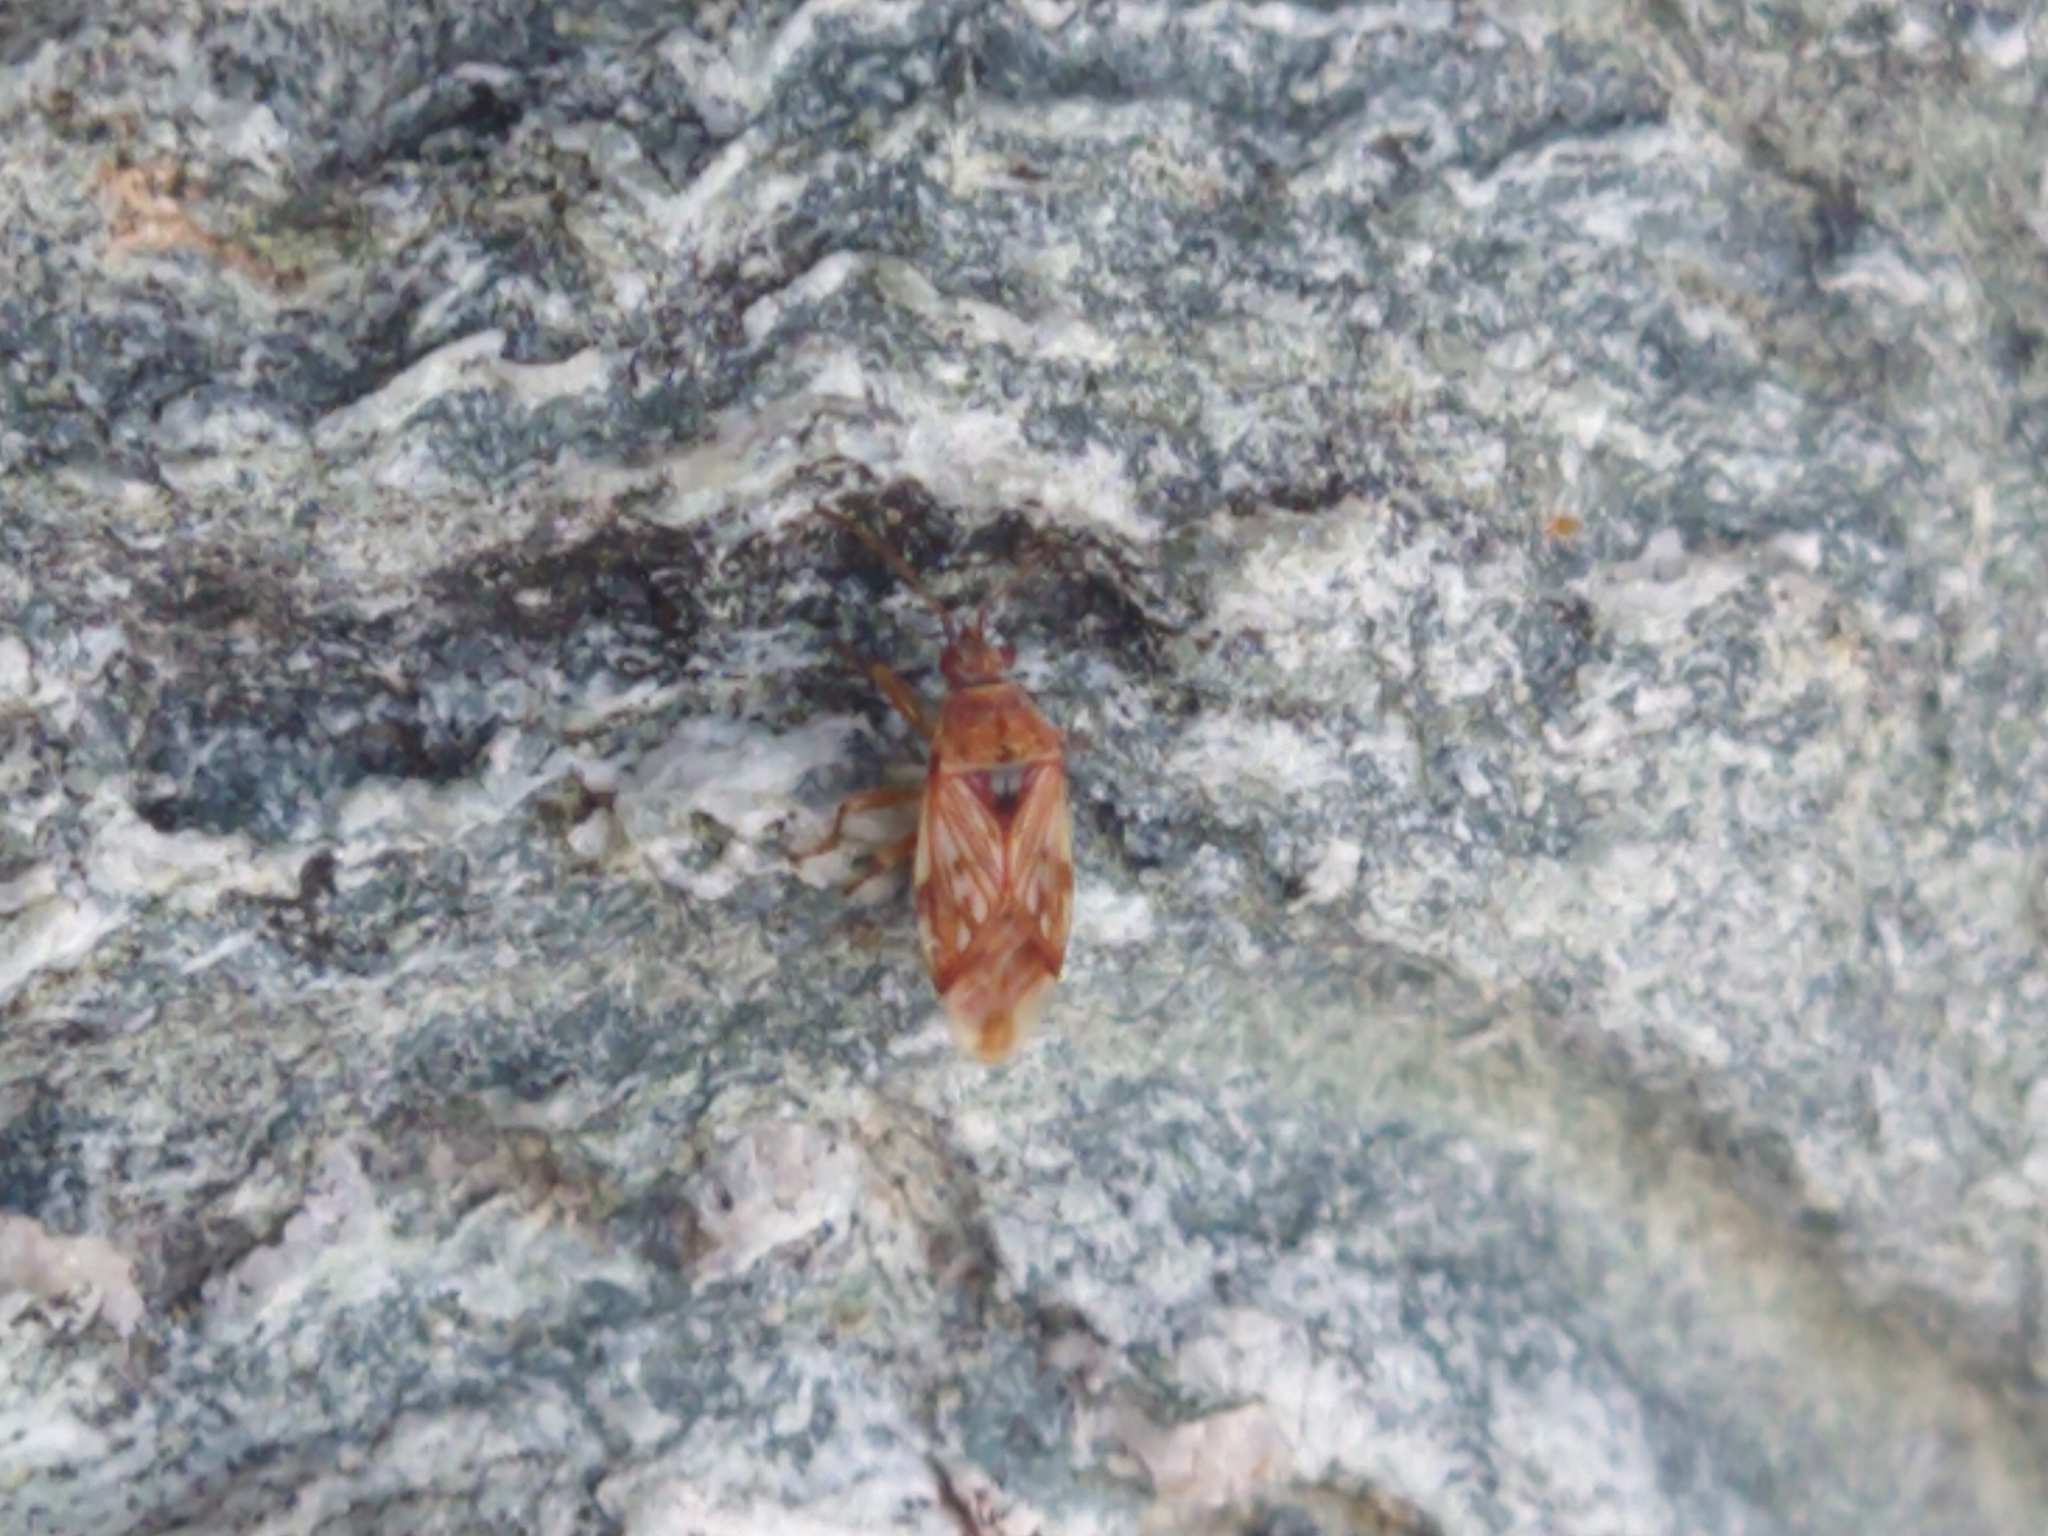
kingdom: Animalia
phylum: Arthropoda
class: Insecta
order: Hemiptera
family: Lygaeidae
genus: Syzygitis
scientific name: Syzygitis poecilus
